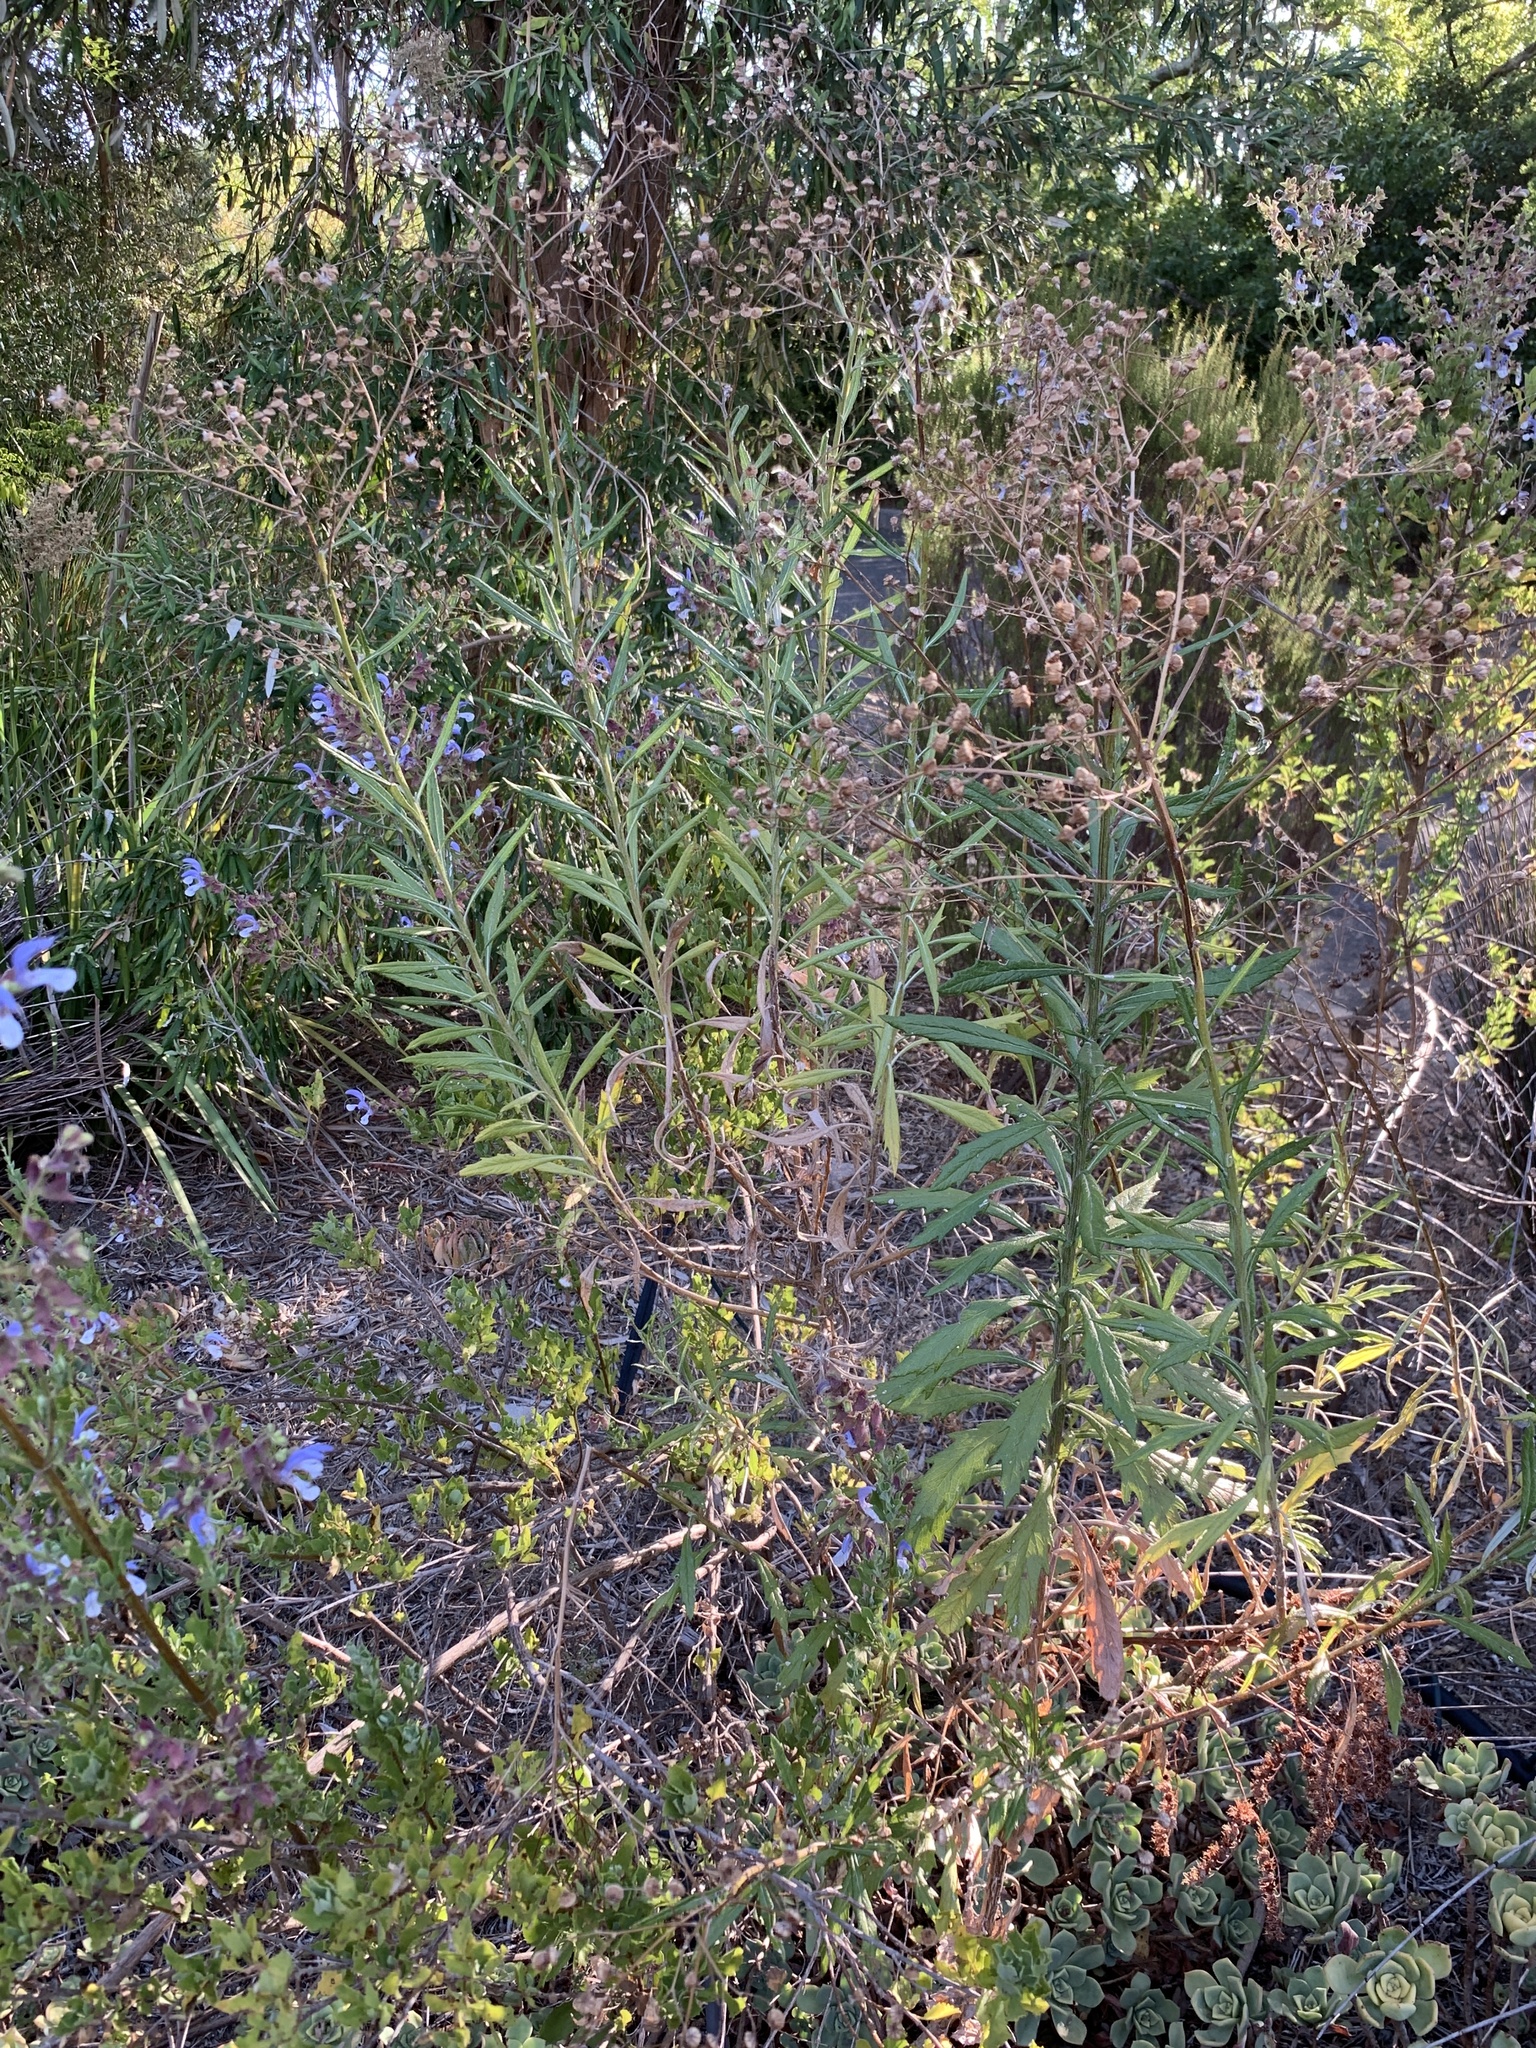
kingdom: Plantae
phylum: Tracheophyta
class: Magnoliopsida
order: Asterales
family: Asteraceae
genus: Senecio
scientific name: Senecio pterophorus
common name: Shoddy ragwort
